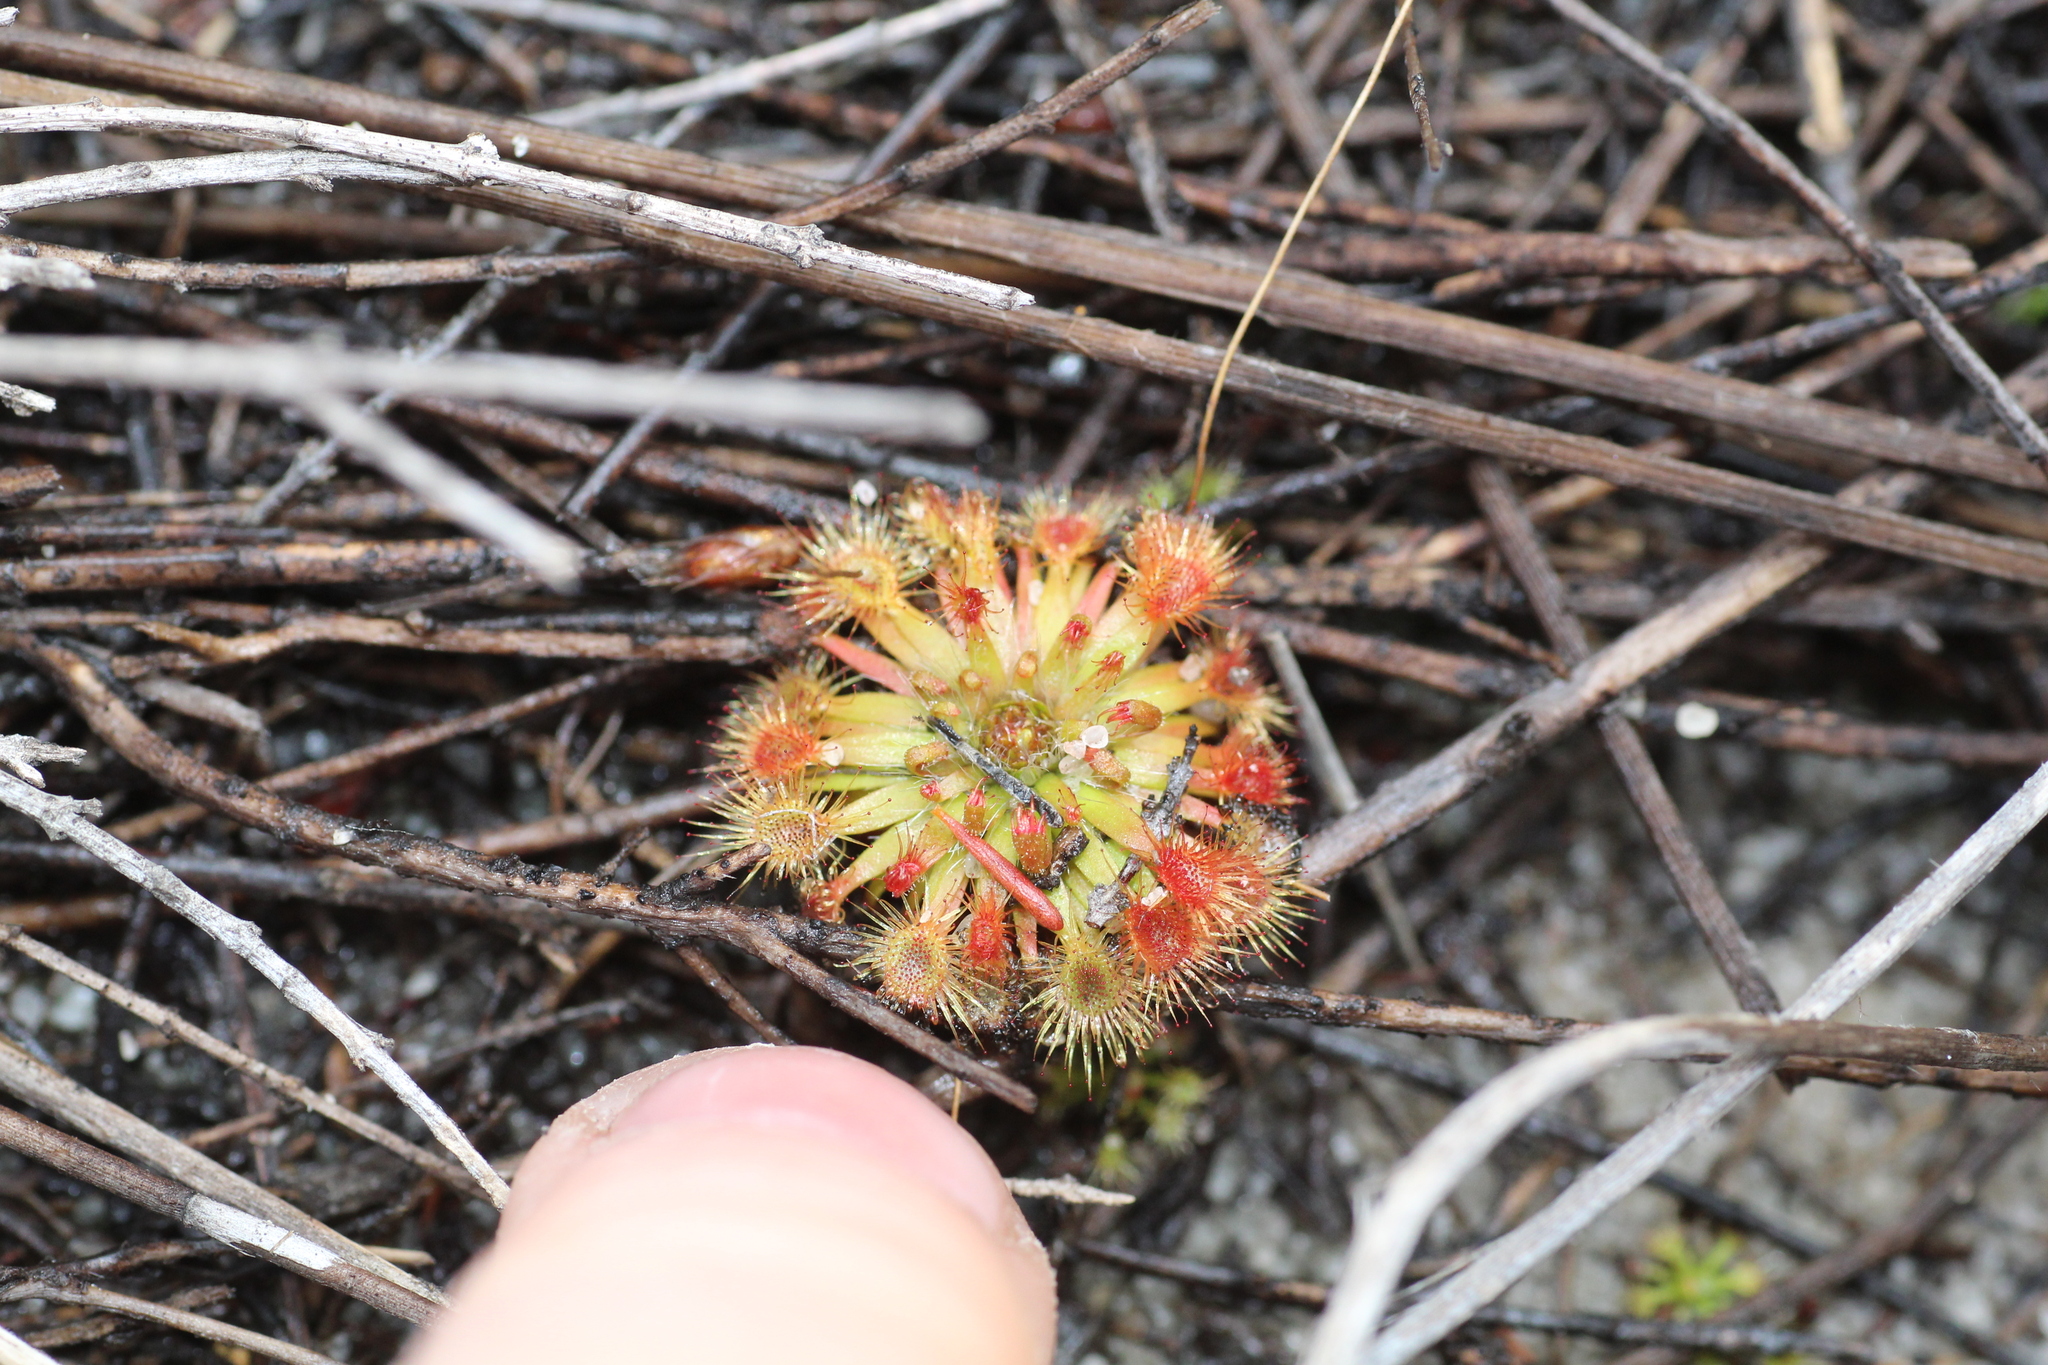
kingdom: Plantae
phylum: Tracheophyta
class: Magnoliopsida
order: Caryophyllales
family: Droseraceae
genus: Drosera
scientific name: Drosera sidjamesii
